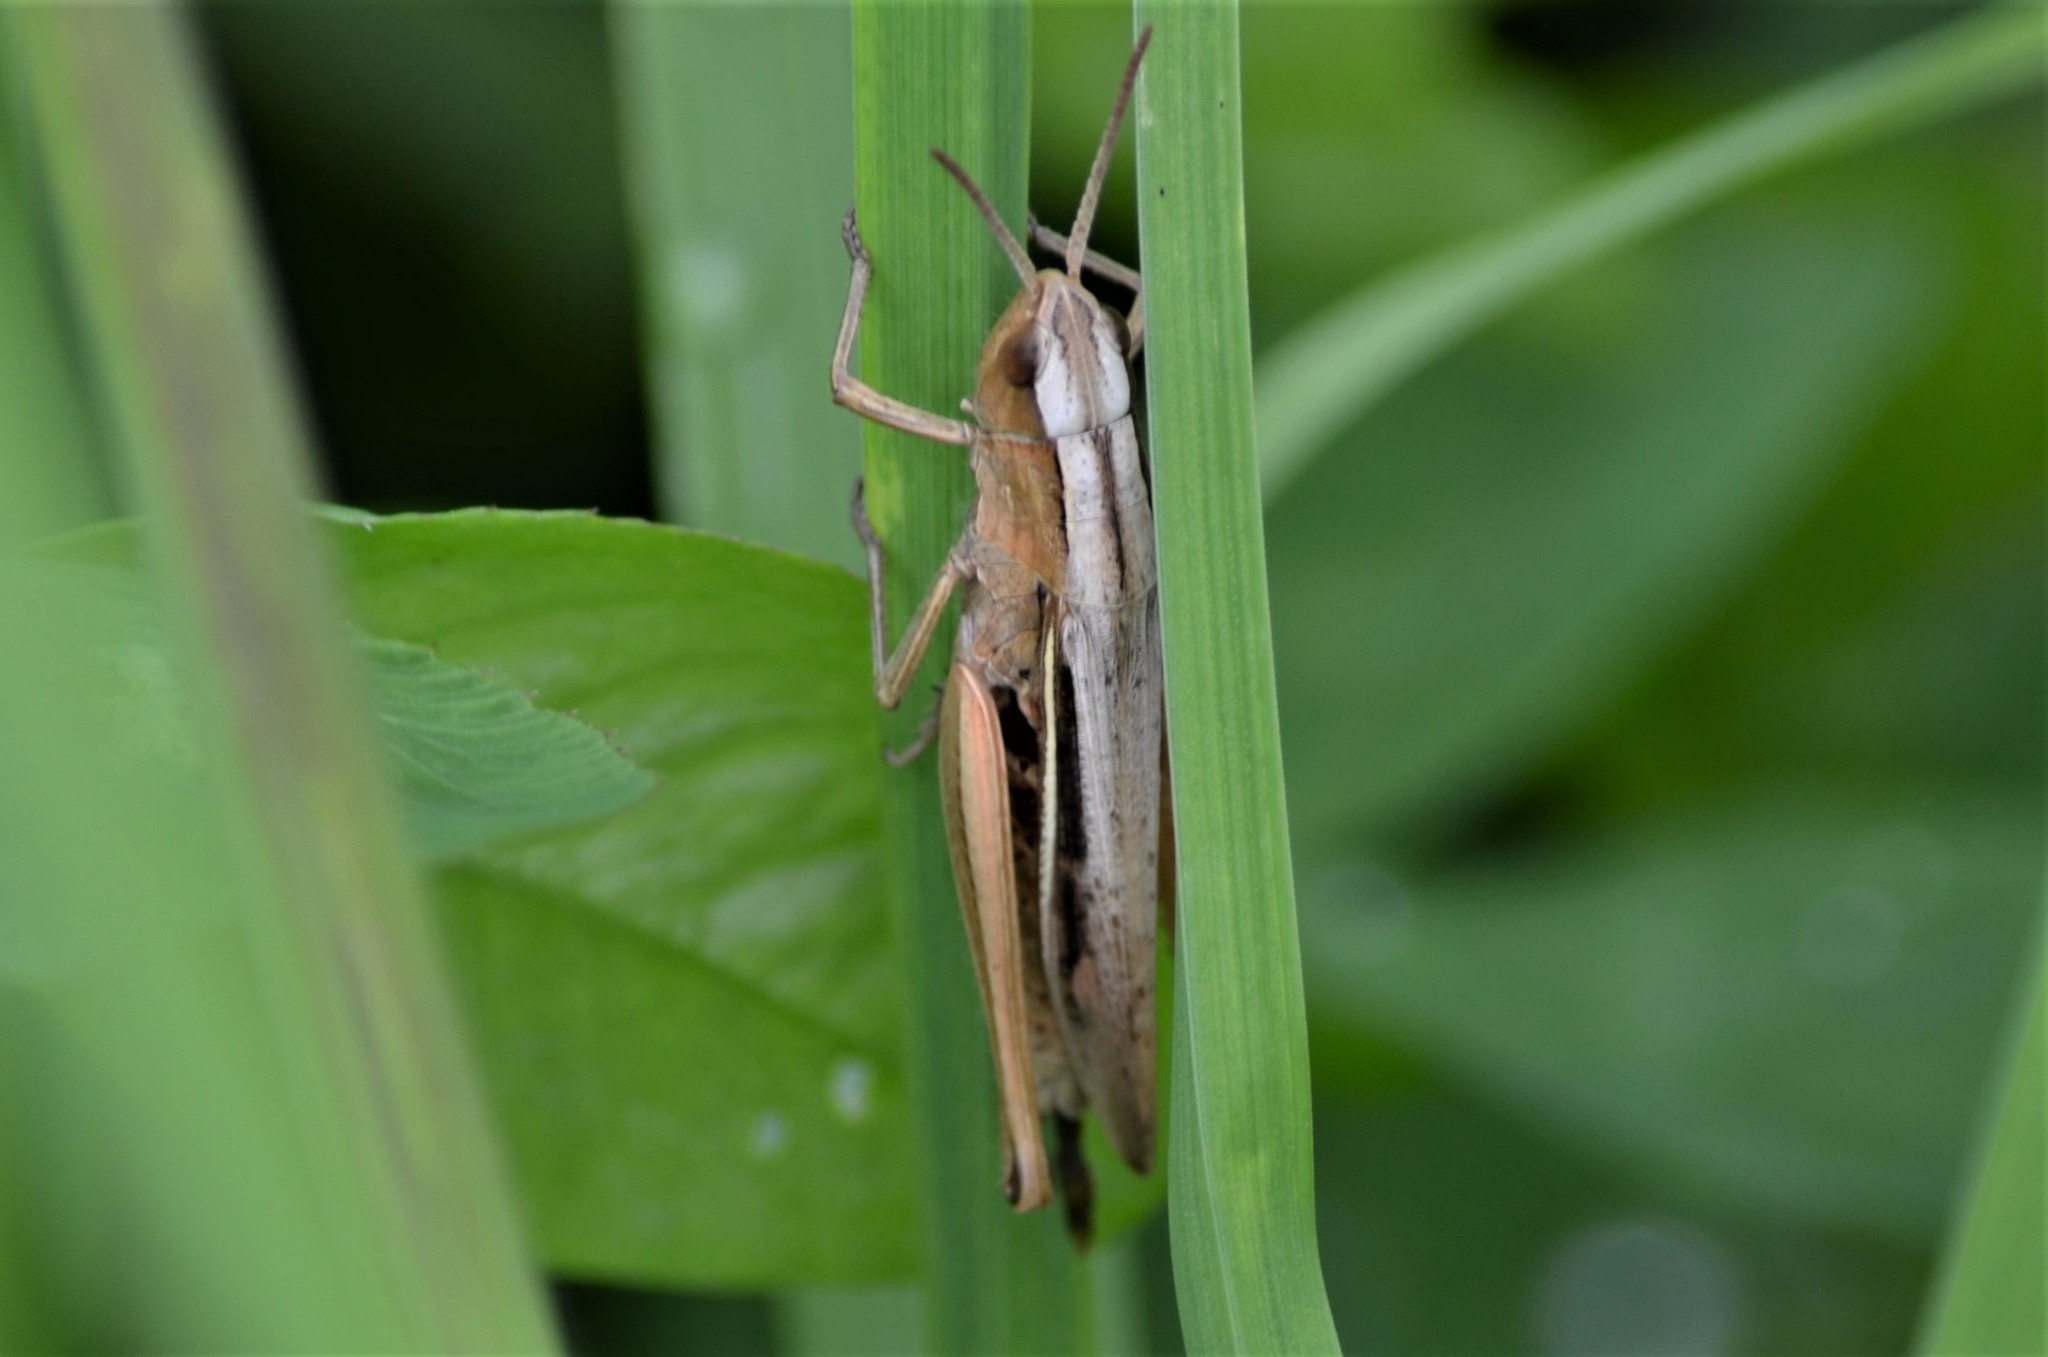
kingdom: Animalia
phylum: Arthropoda
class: Insecta
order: Orthoptera
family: Acrididae
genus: Chorthippus
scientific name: Chorthippus albomarginatus
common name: Lesser marsh grasshopper
